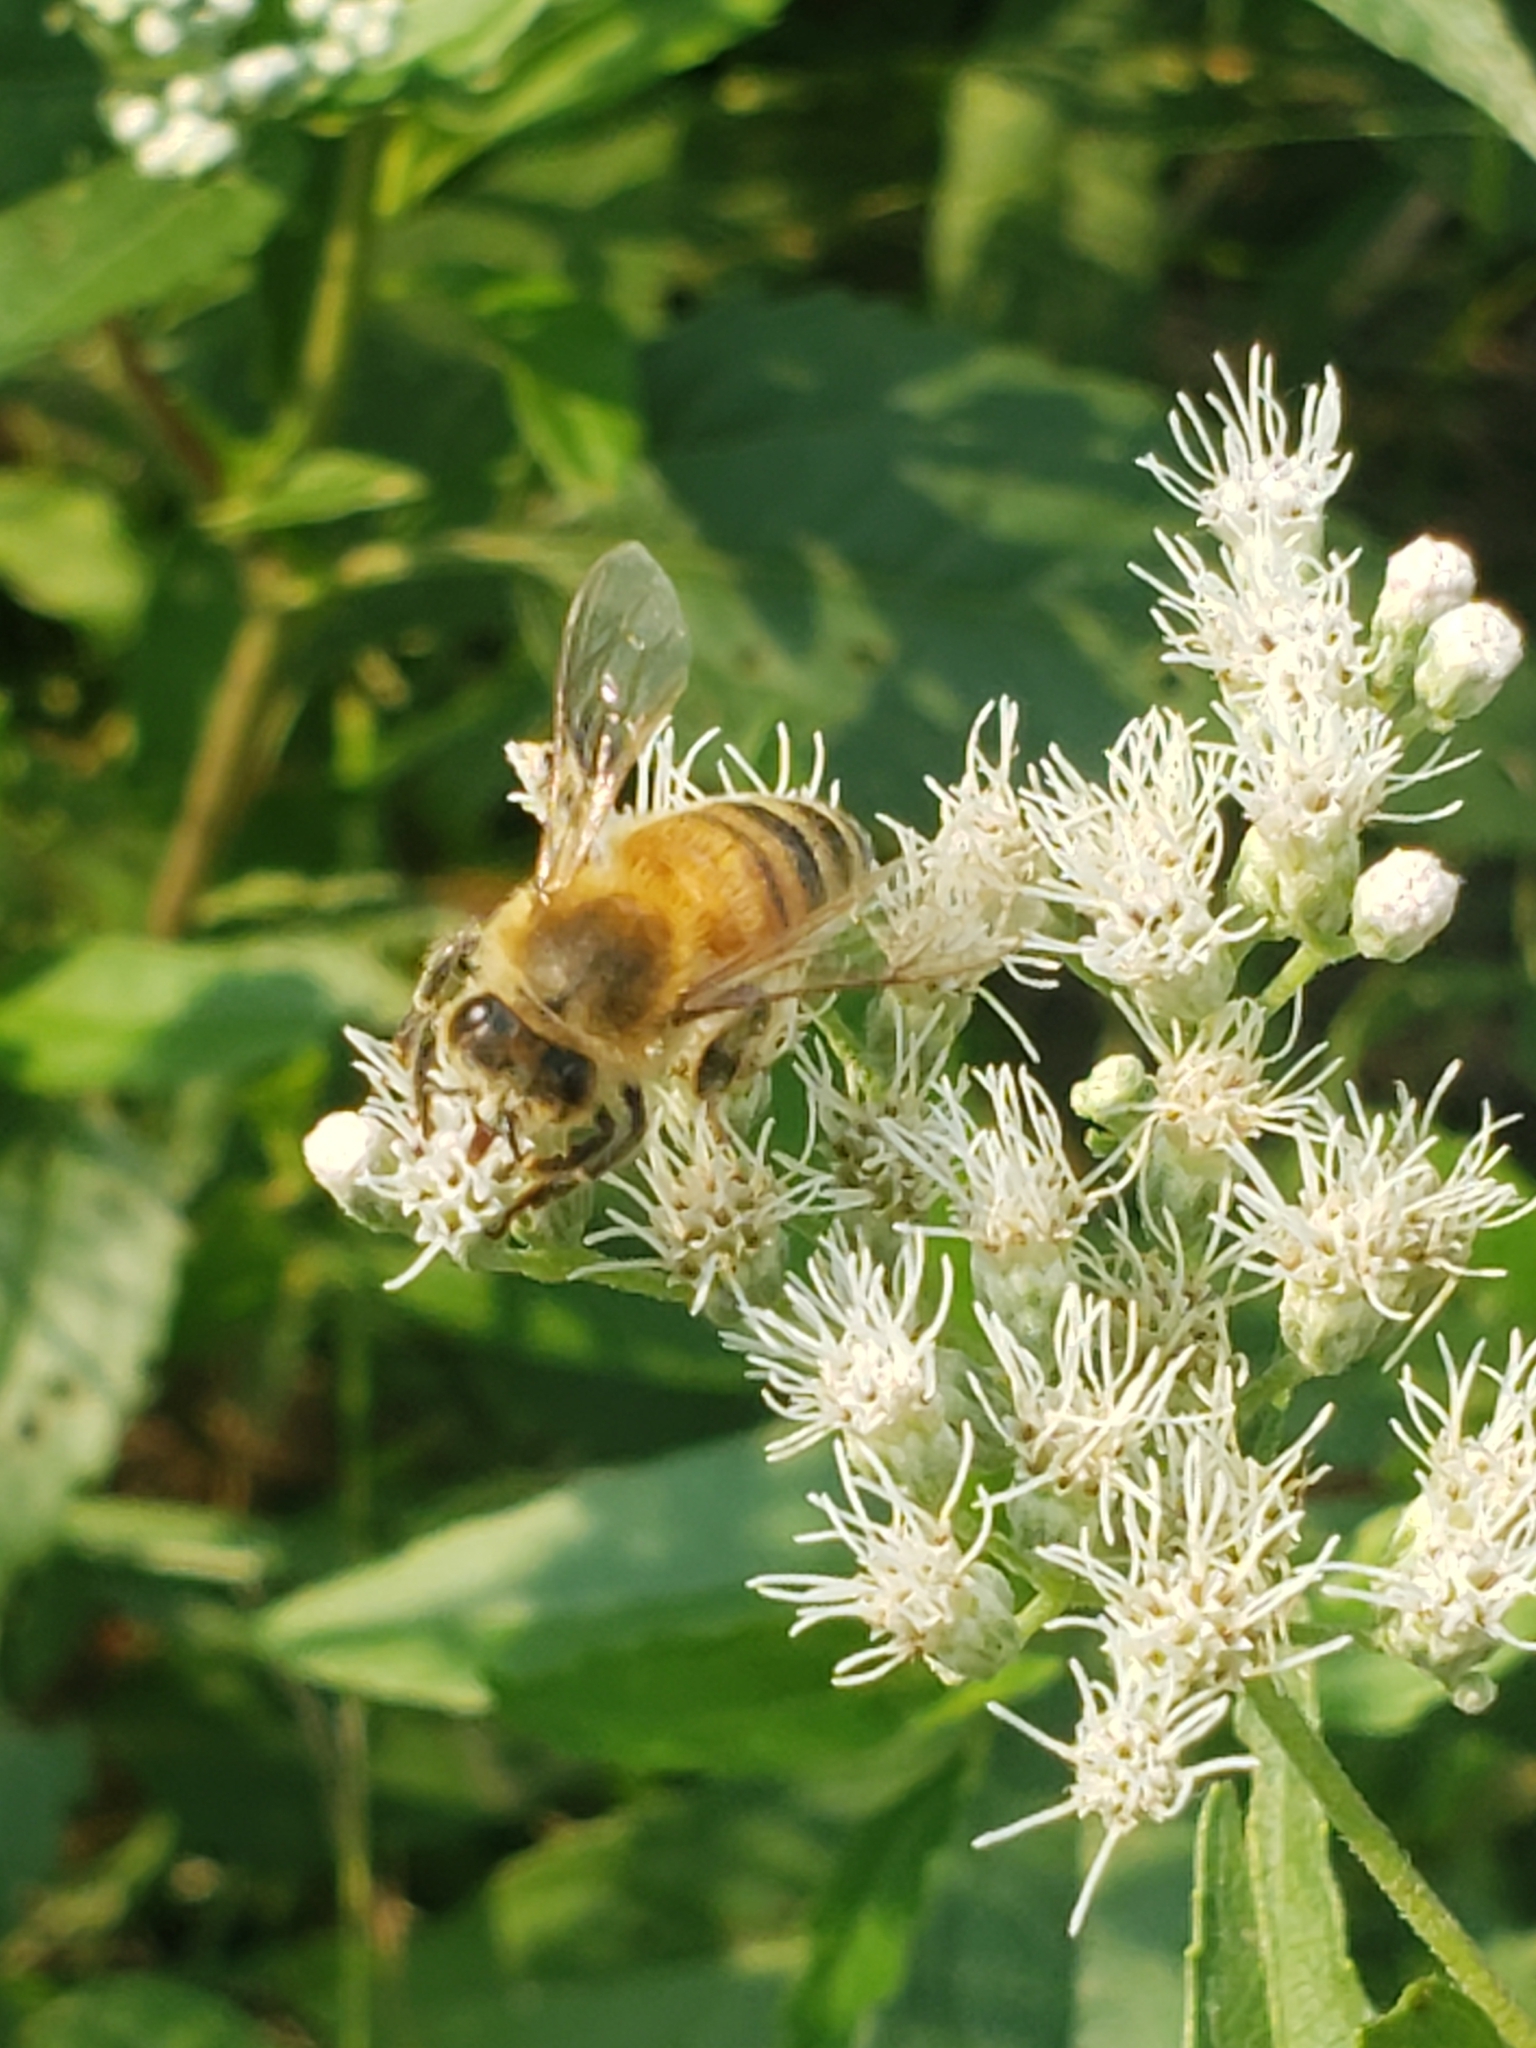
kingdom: Animalia
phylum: Arthropoda
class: Insecta
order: Hymenoptera
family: Apidae
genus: Apis
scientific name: Apis mellifera
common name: Honey bee
